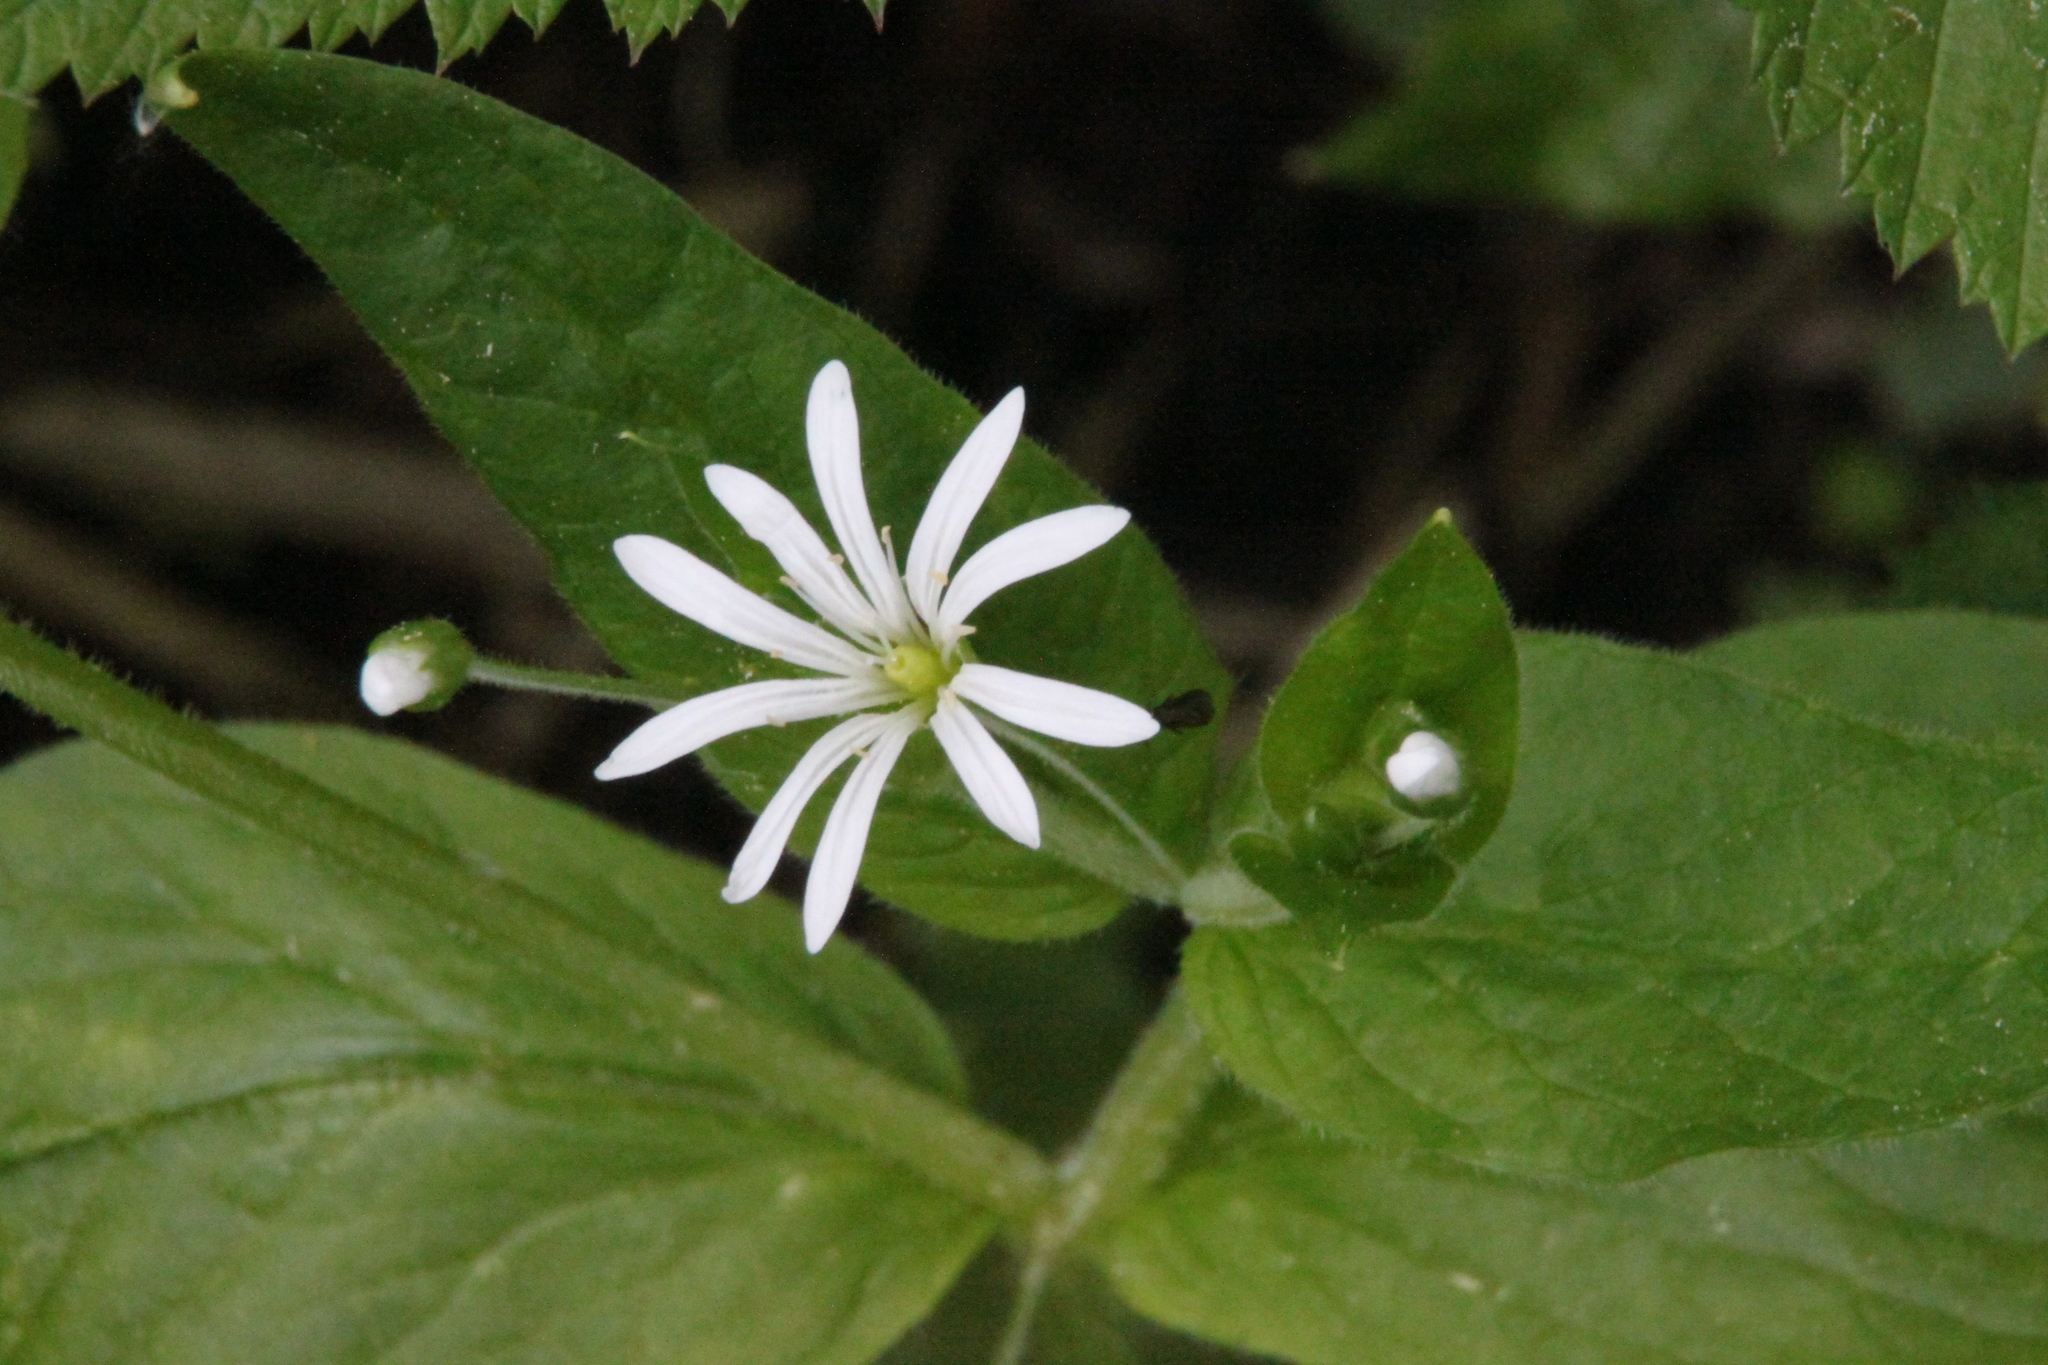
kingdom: Plantae
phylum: Tracheophyta
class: Magnoliopsida
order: Caryophyllales
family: Caryophyllaceae
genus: Stellaria
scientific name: Stellaria nemorum
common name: Wood stitchwort
